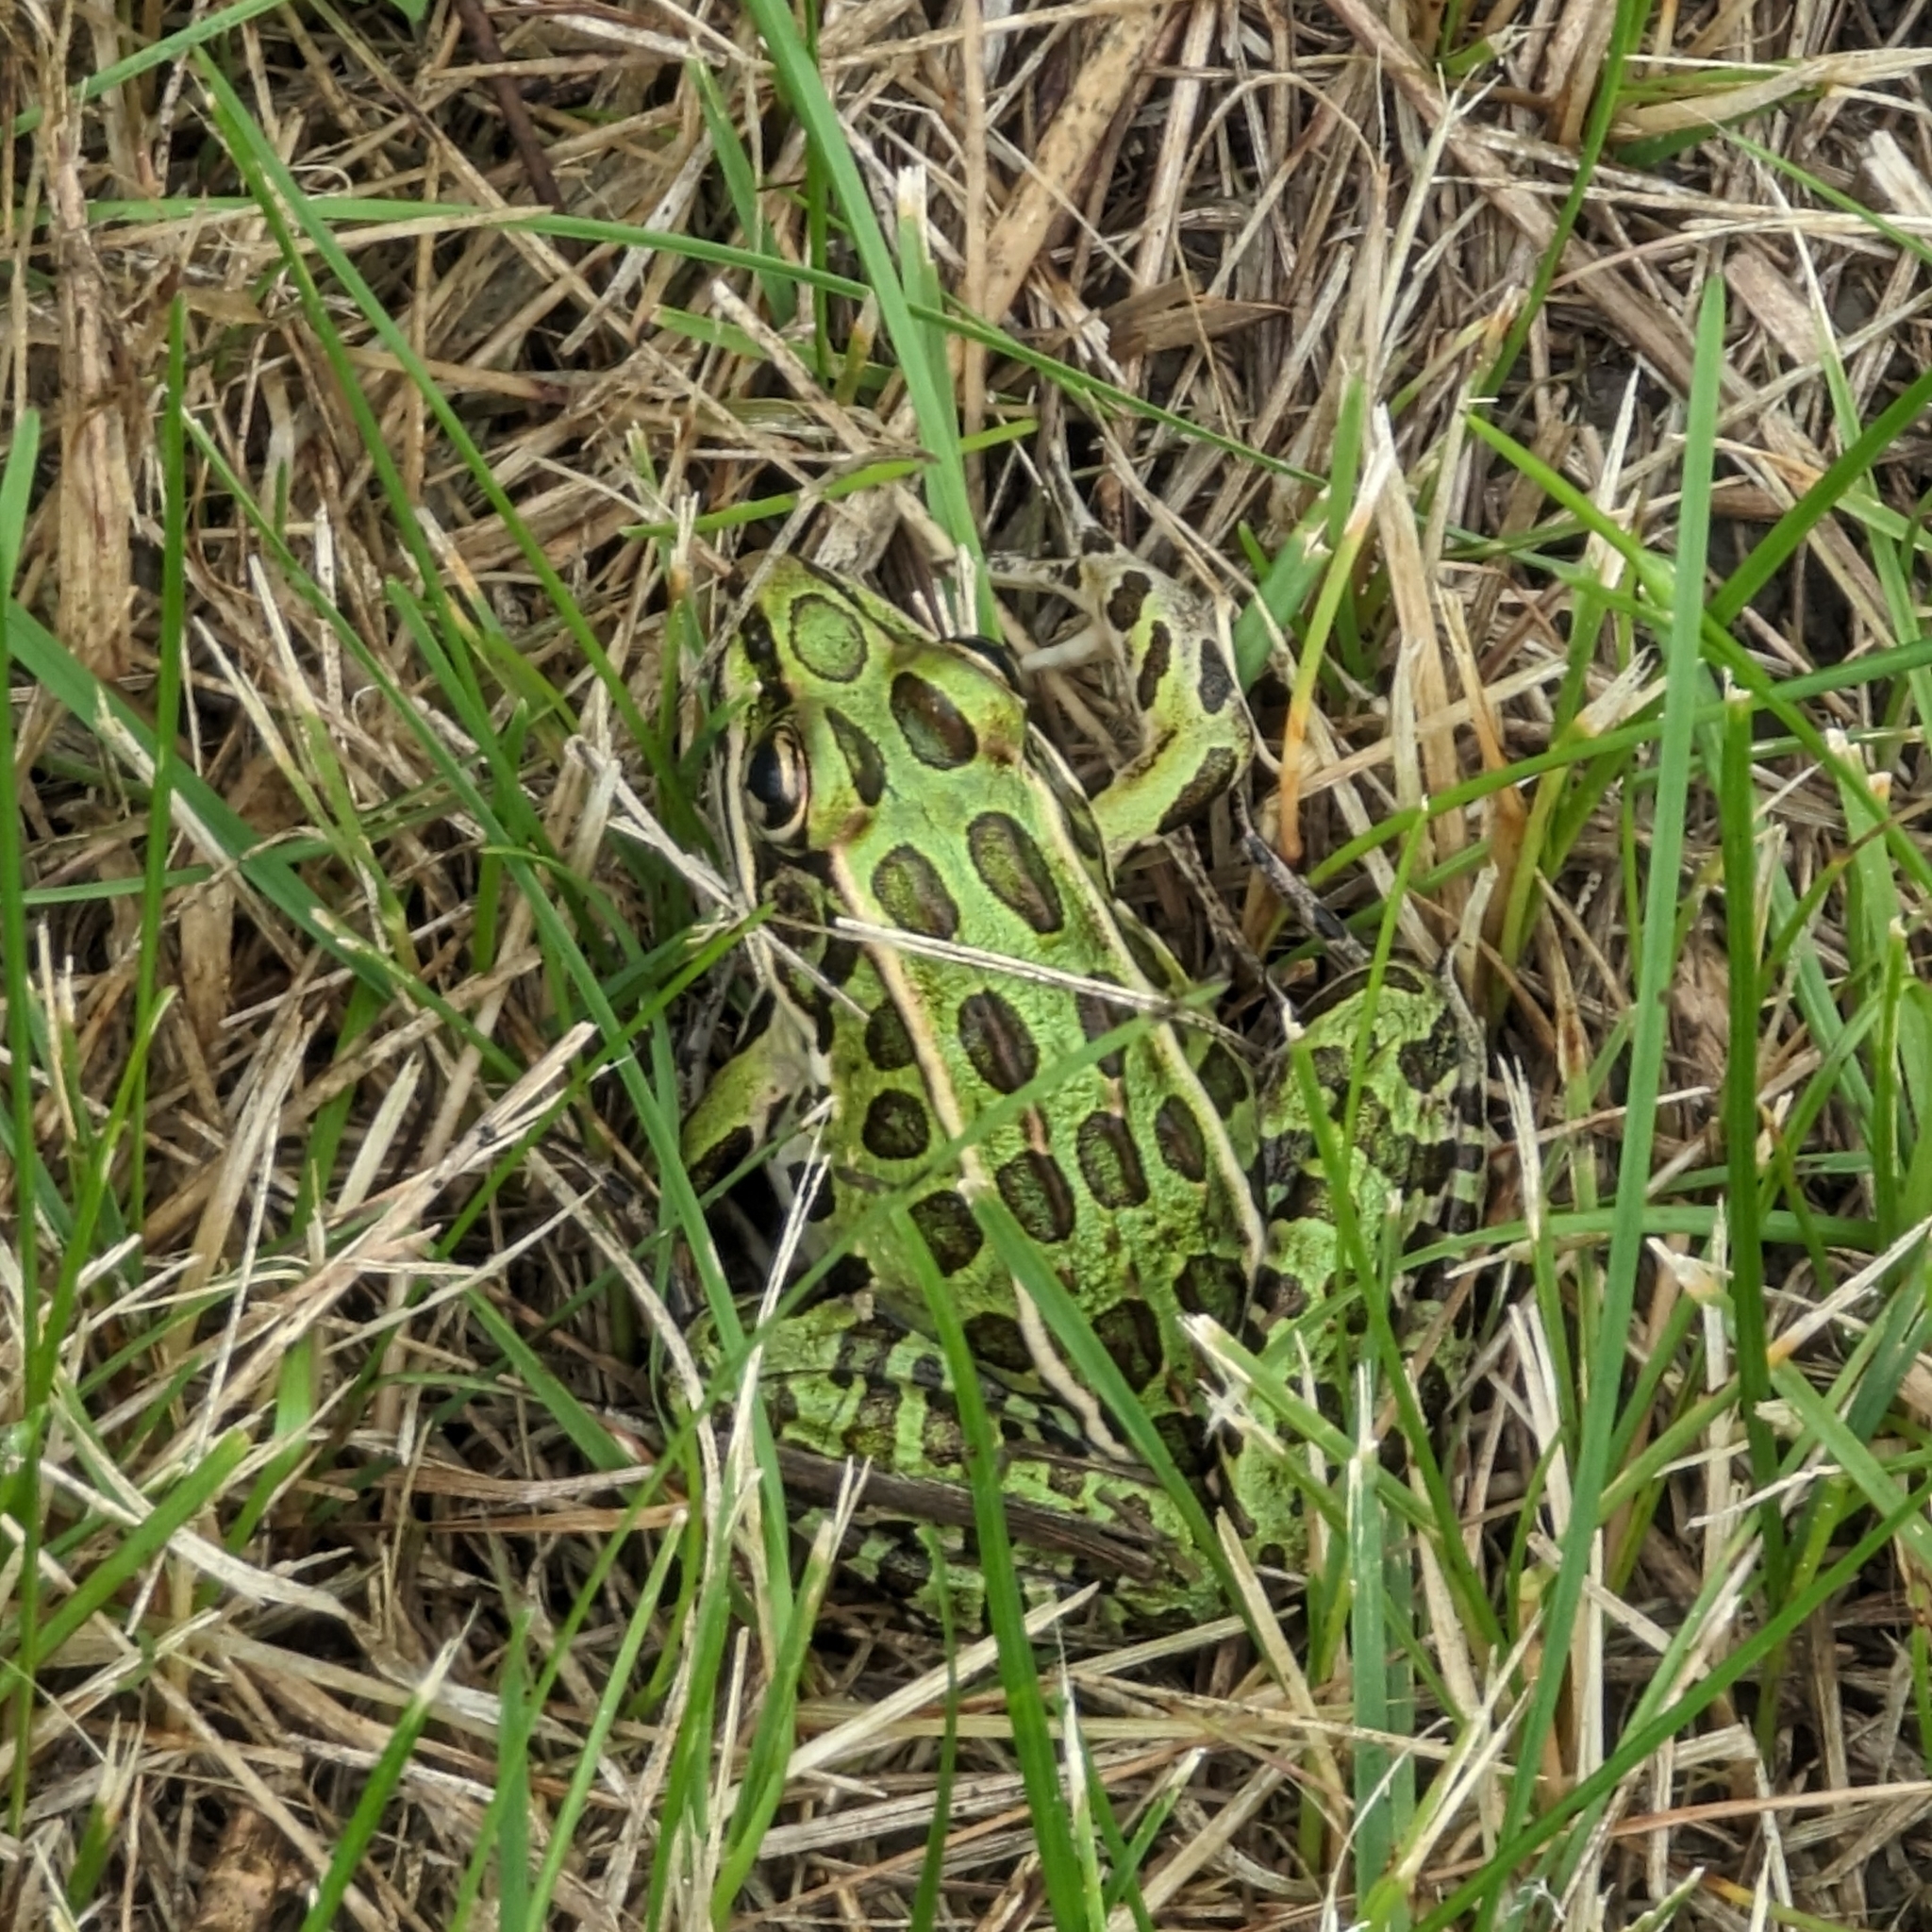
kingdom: Animalia
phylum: Chordata
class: Amphibia
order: Anura
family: Ranidae
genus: Lithobates
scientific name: Lithobates pipiens
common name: Northern leopard frog
